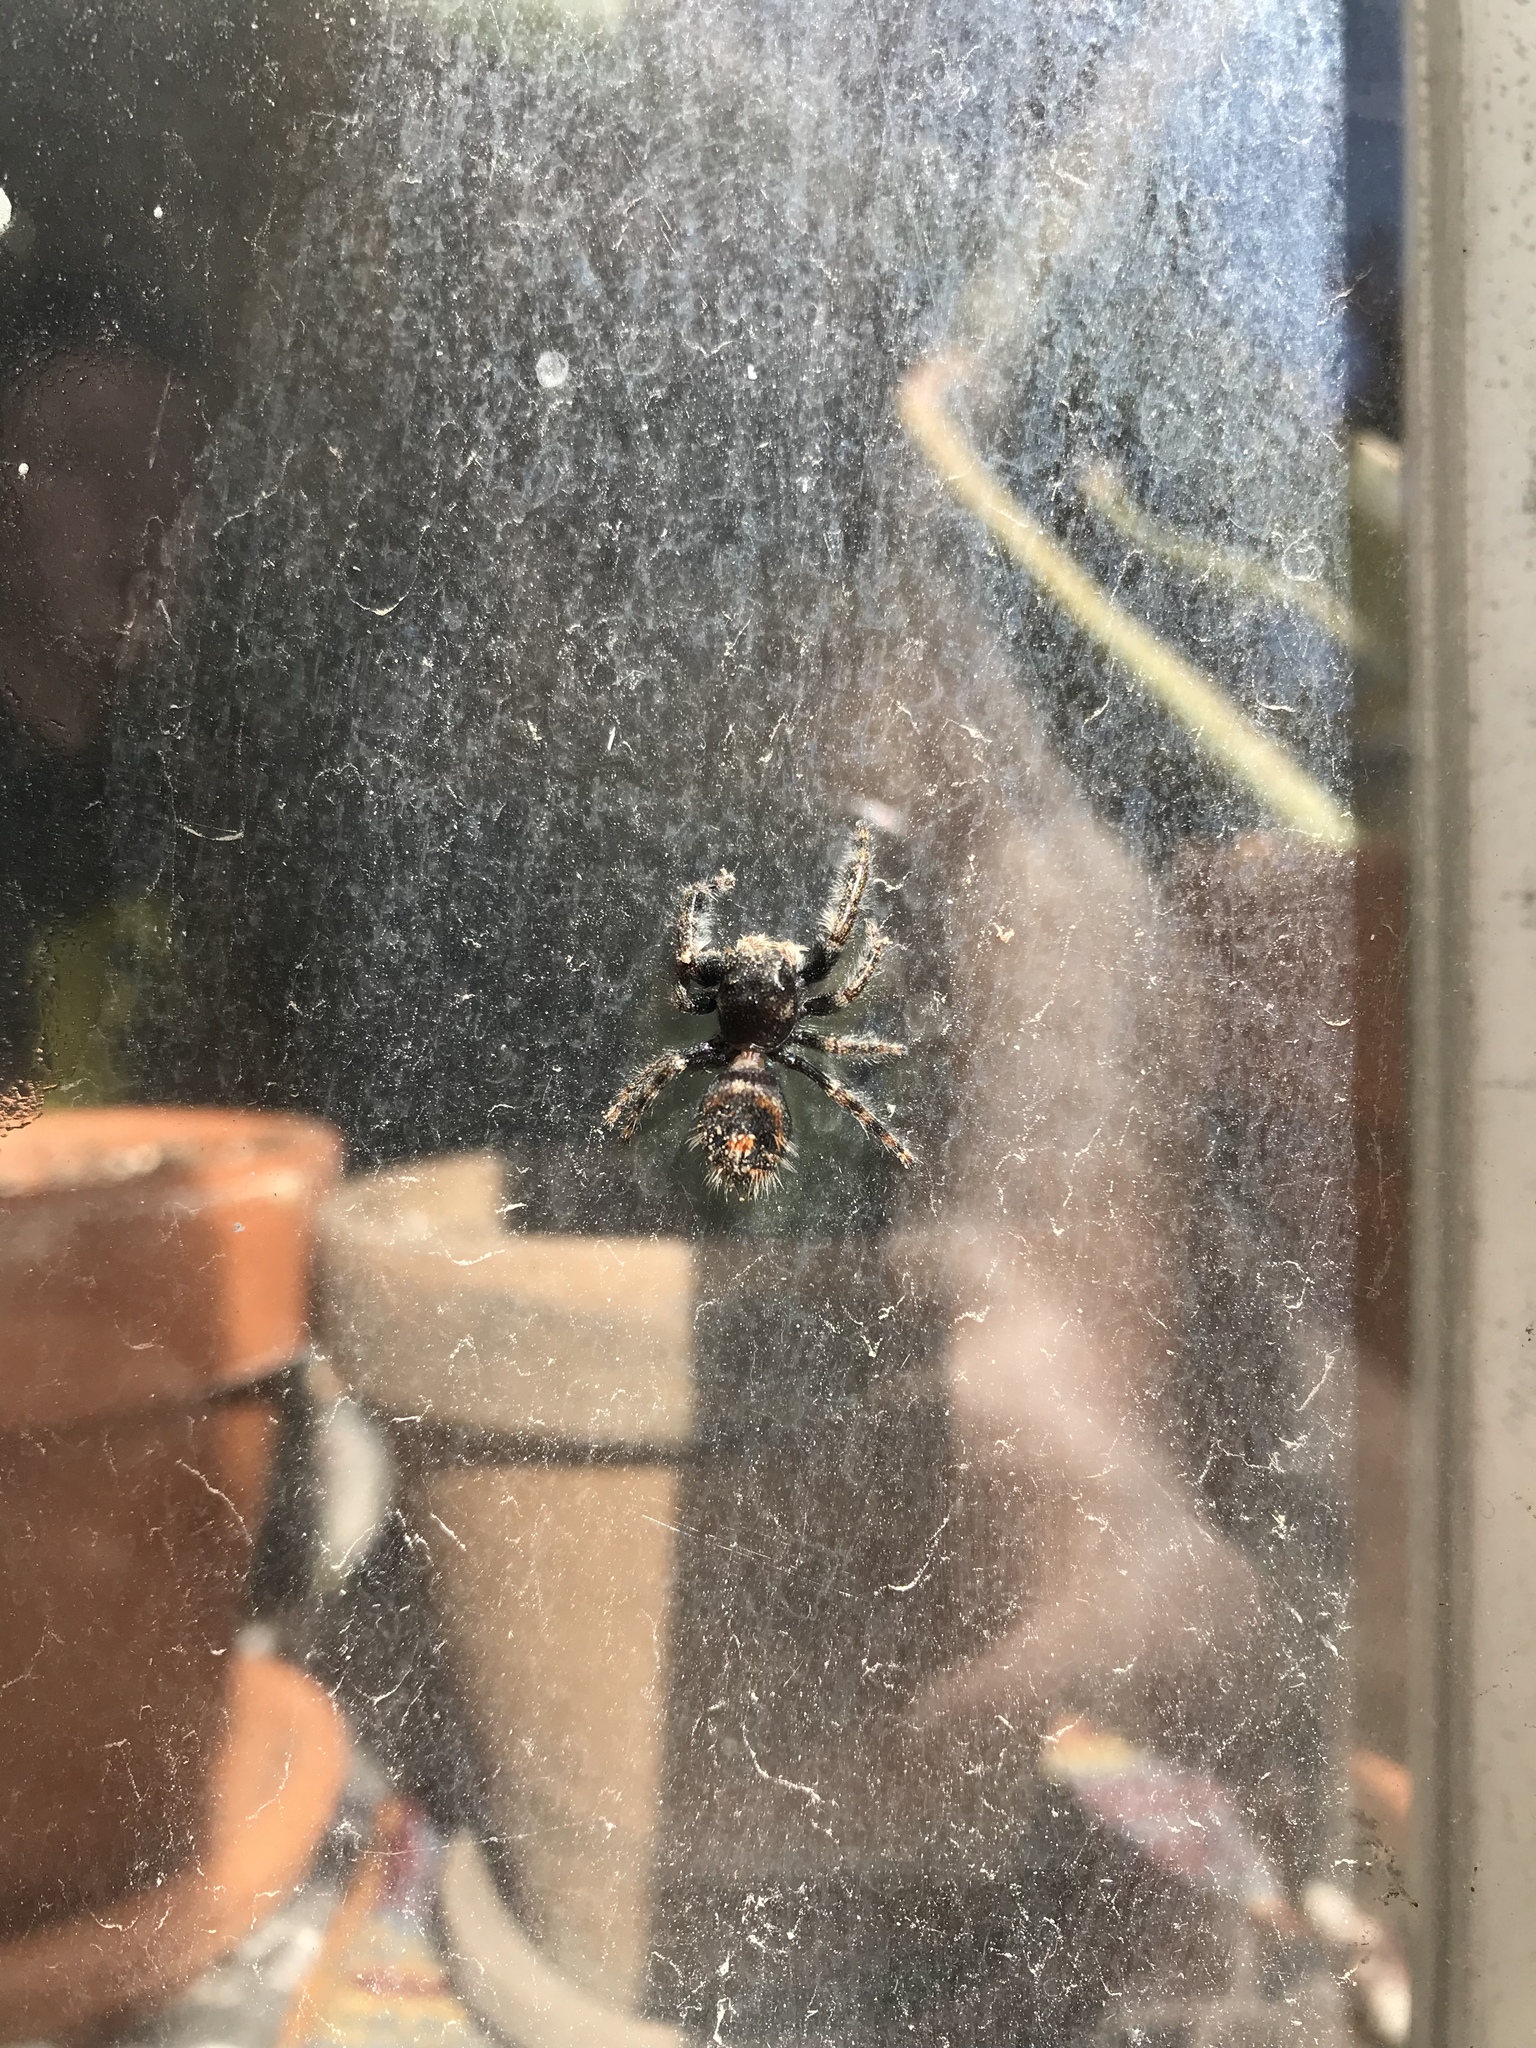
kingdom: Animalia
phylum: Arthropoda
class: Arachnida
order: Araneae
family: Salticidae
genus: Phidippus
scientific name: Phidippus audax
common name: Bold jumper
